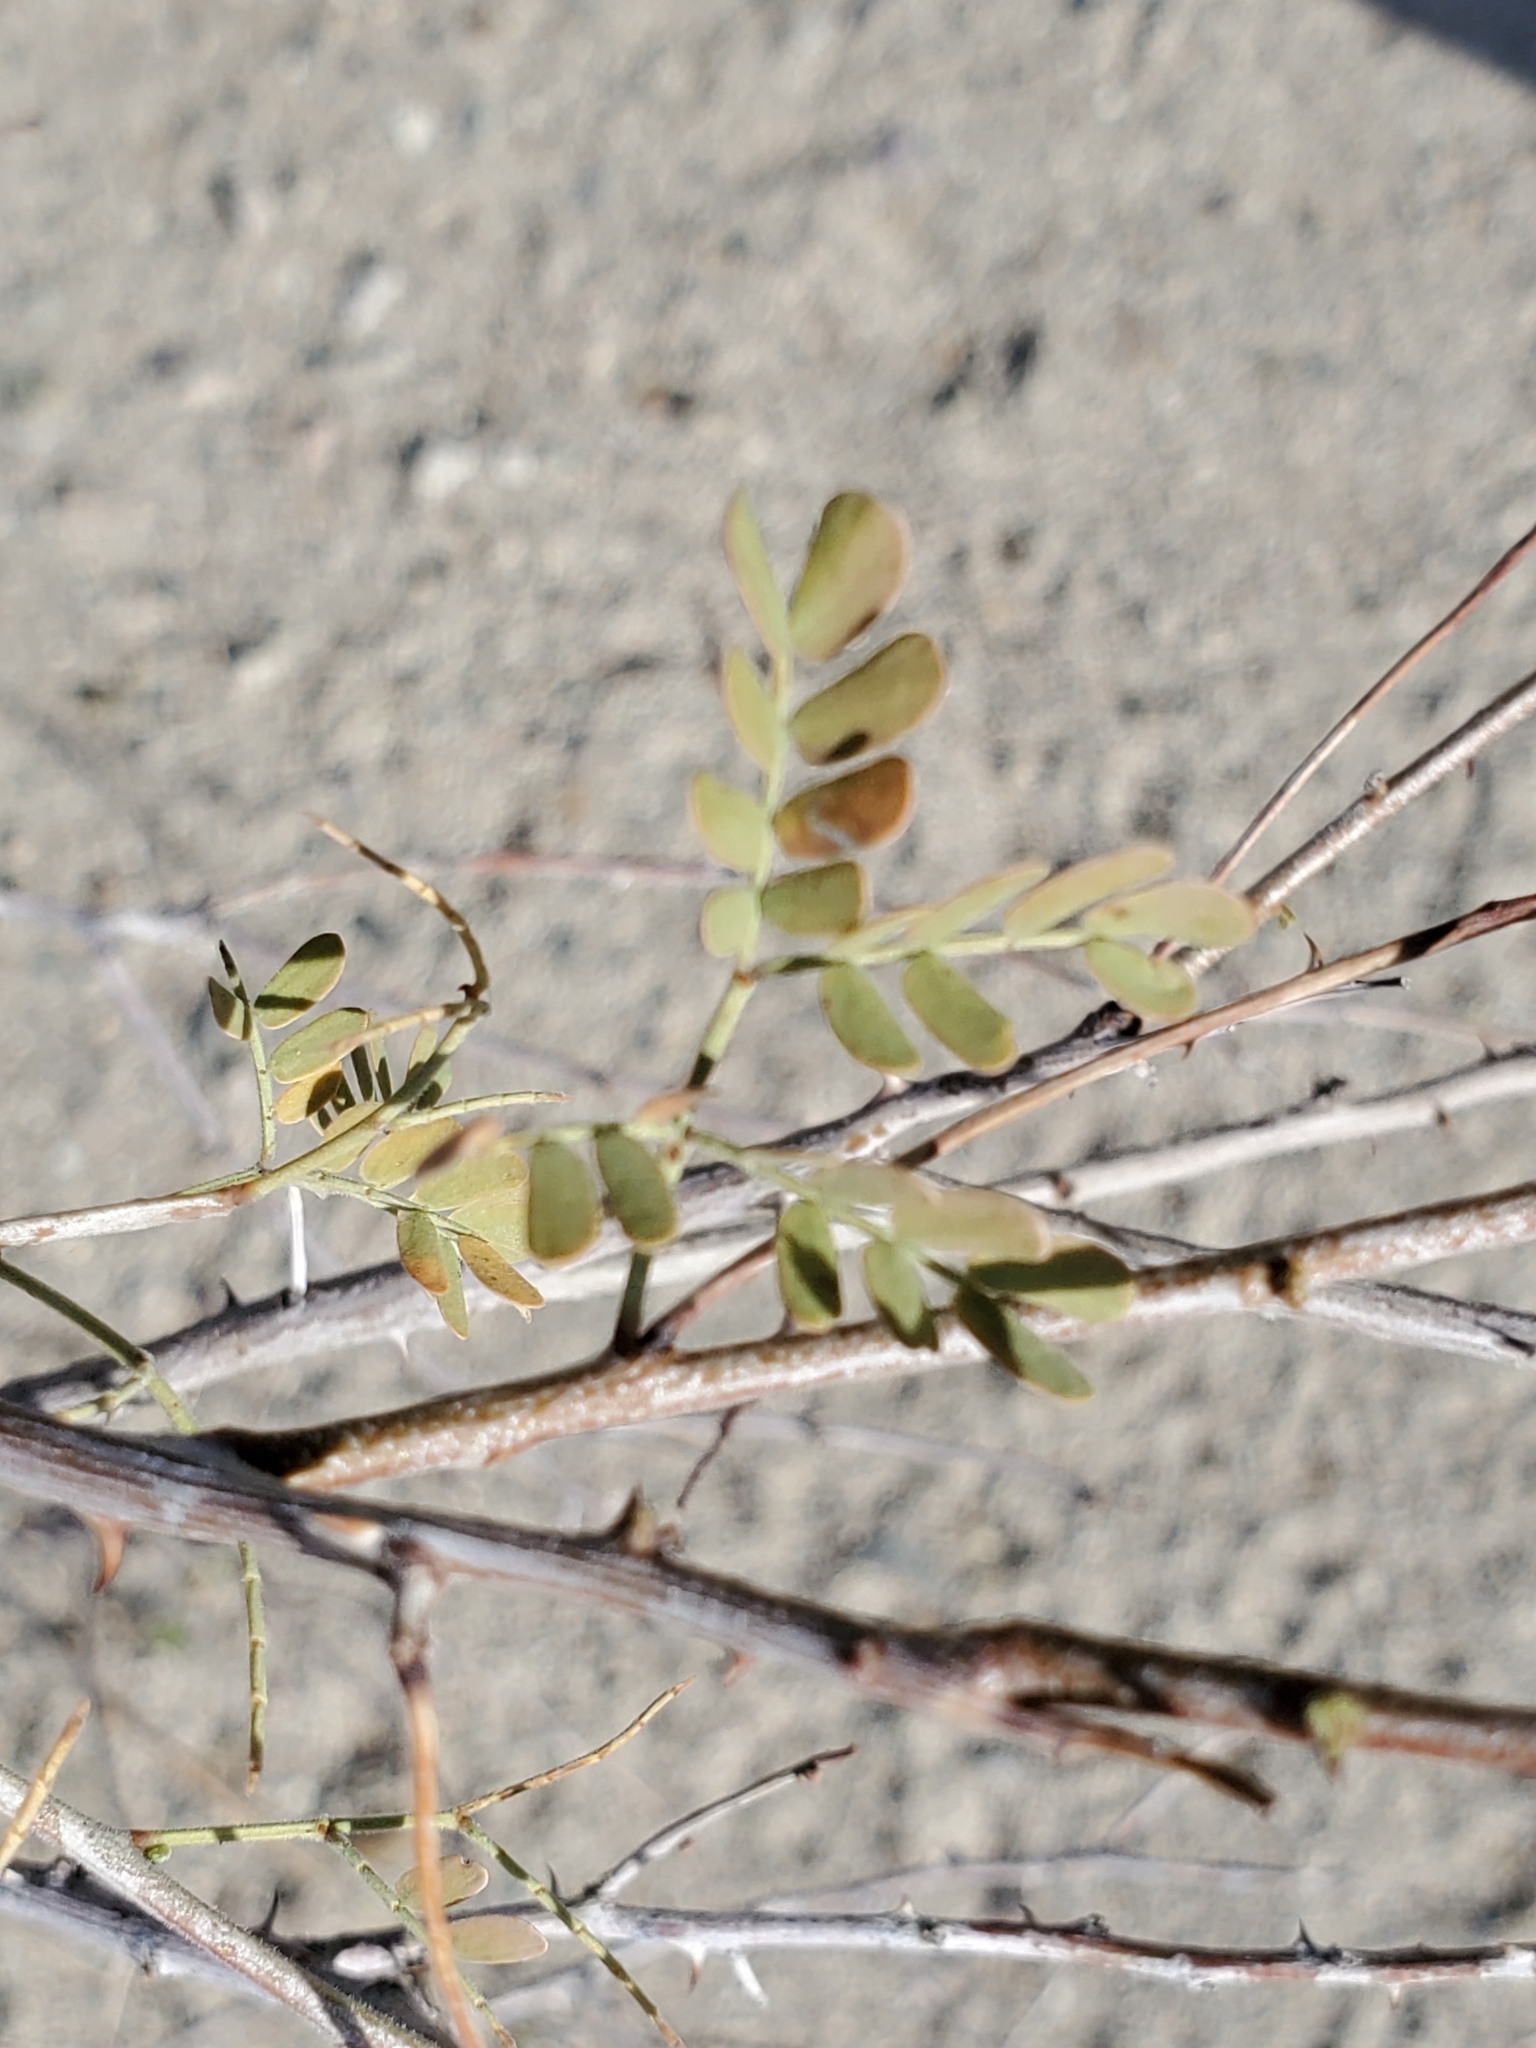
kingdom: Plantae
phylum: Tracheophyta
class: Magnoliopsida
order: Fabales
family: Fabaceae
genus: Senegalia
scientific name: Senegalia greggii
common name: Texas-mimosa
